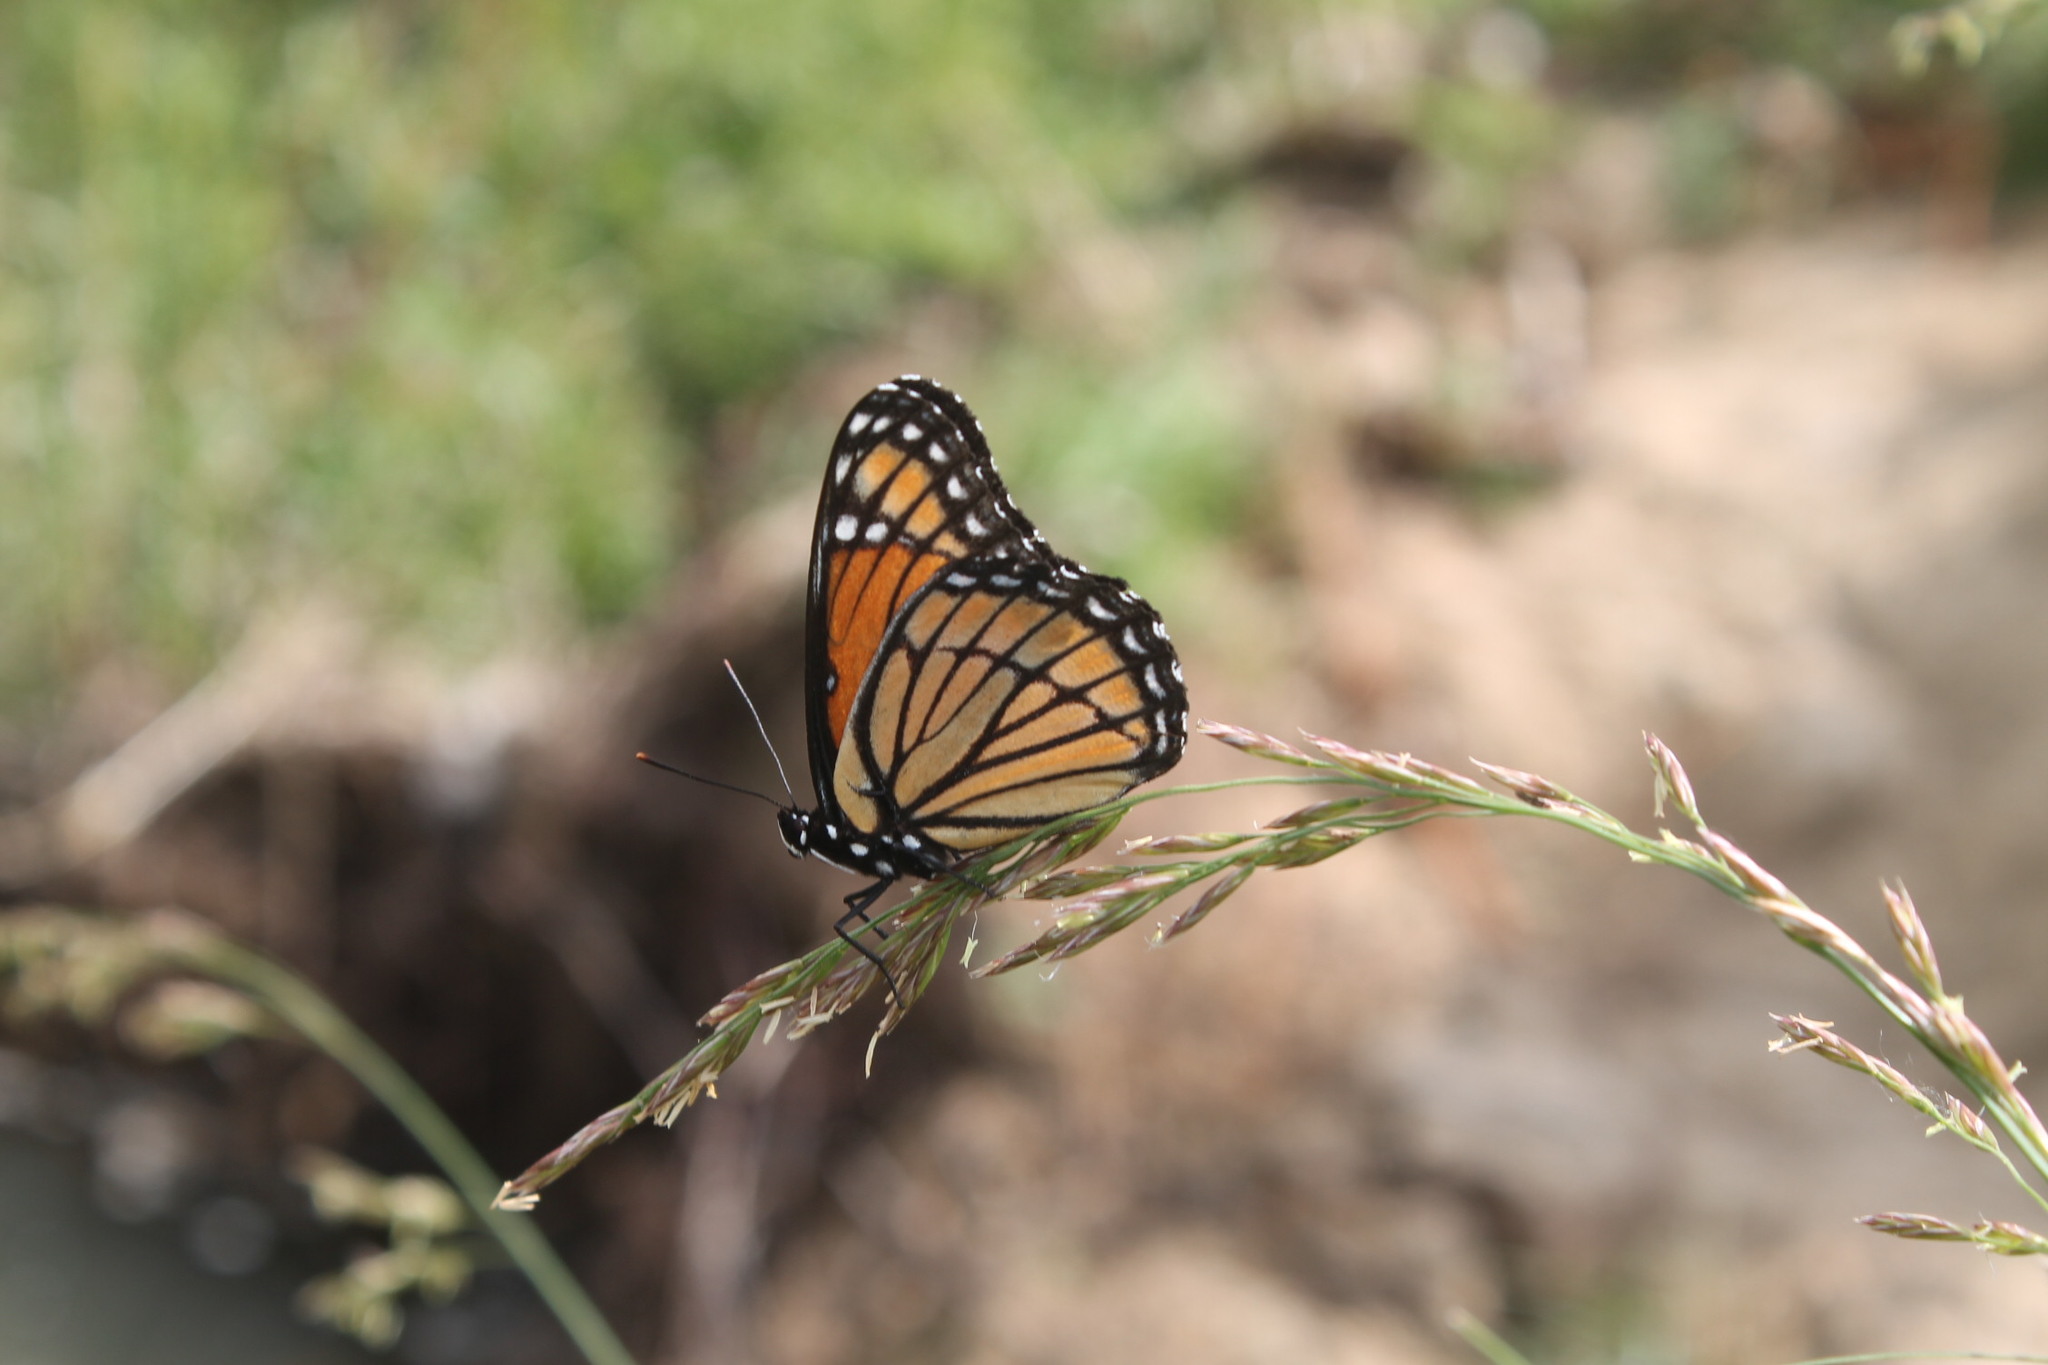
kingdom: Animalia
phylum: Arthropoda
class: Insecta
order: Lepidoptera
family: Nymphalidae
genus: Limenitis
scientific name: Limenitis archippus
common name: Viceroy
